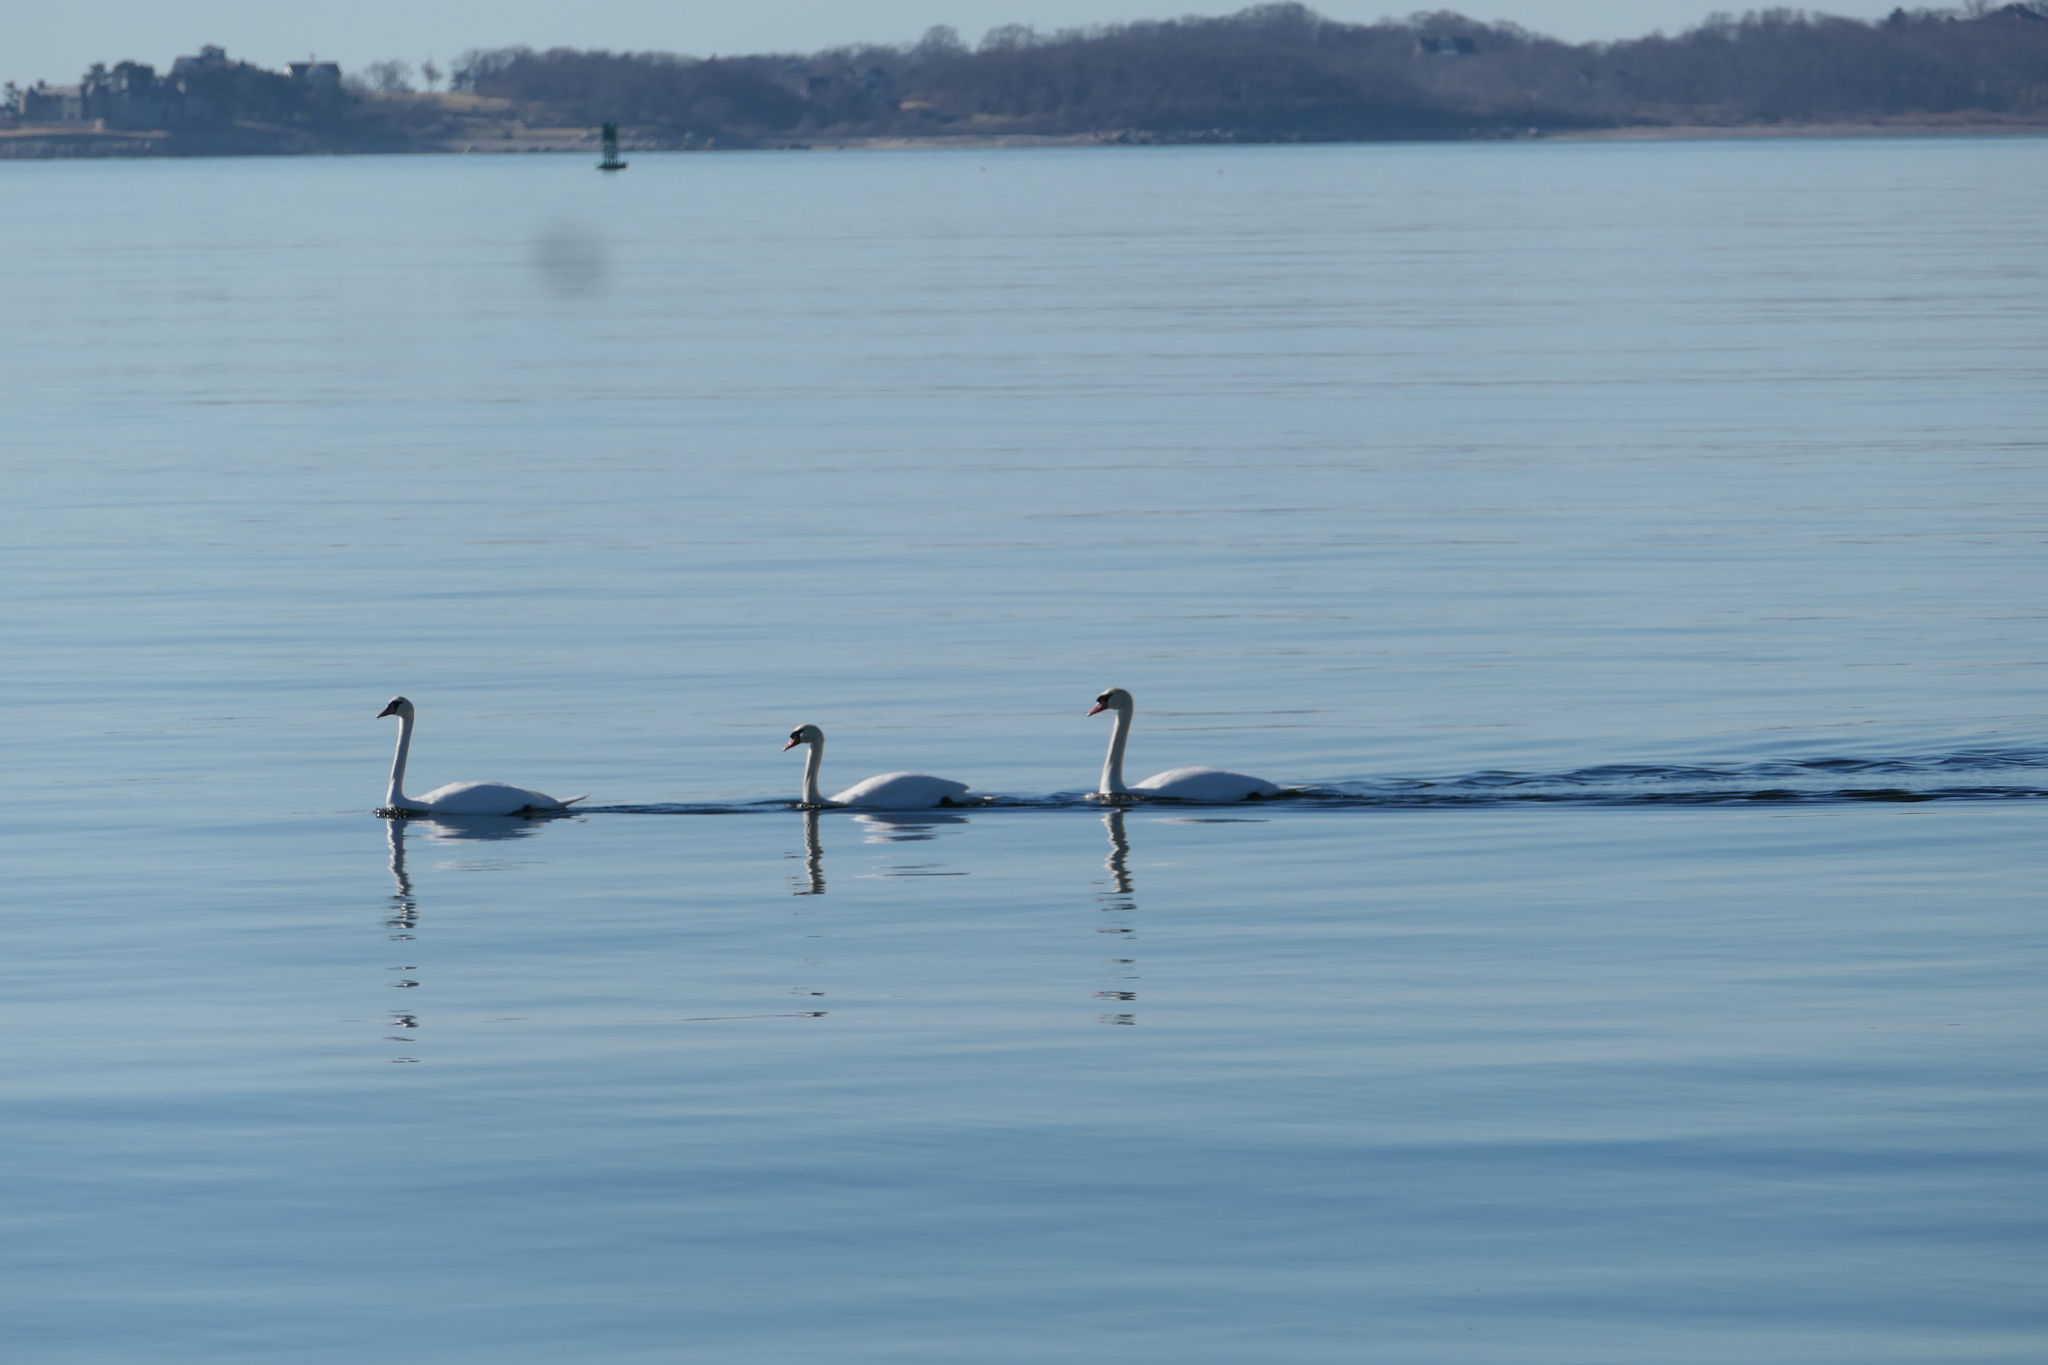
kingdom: Animalia
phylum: Chordata
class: Aves
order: Anseriformes
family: Anatidae
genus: Cygnus
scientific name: Cygnus olor
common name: Mute swan
